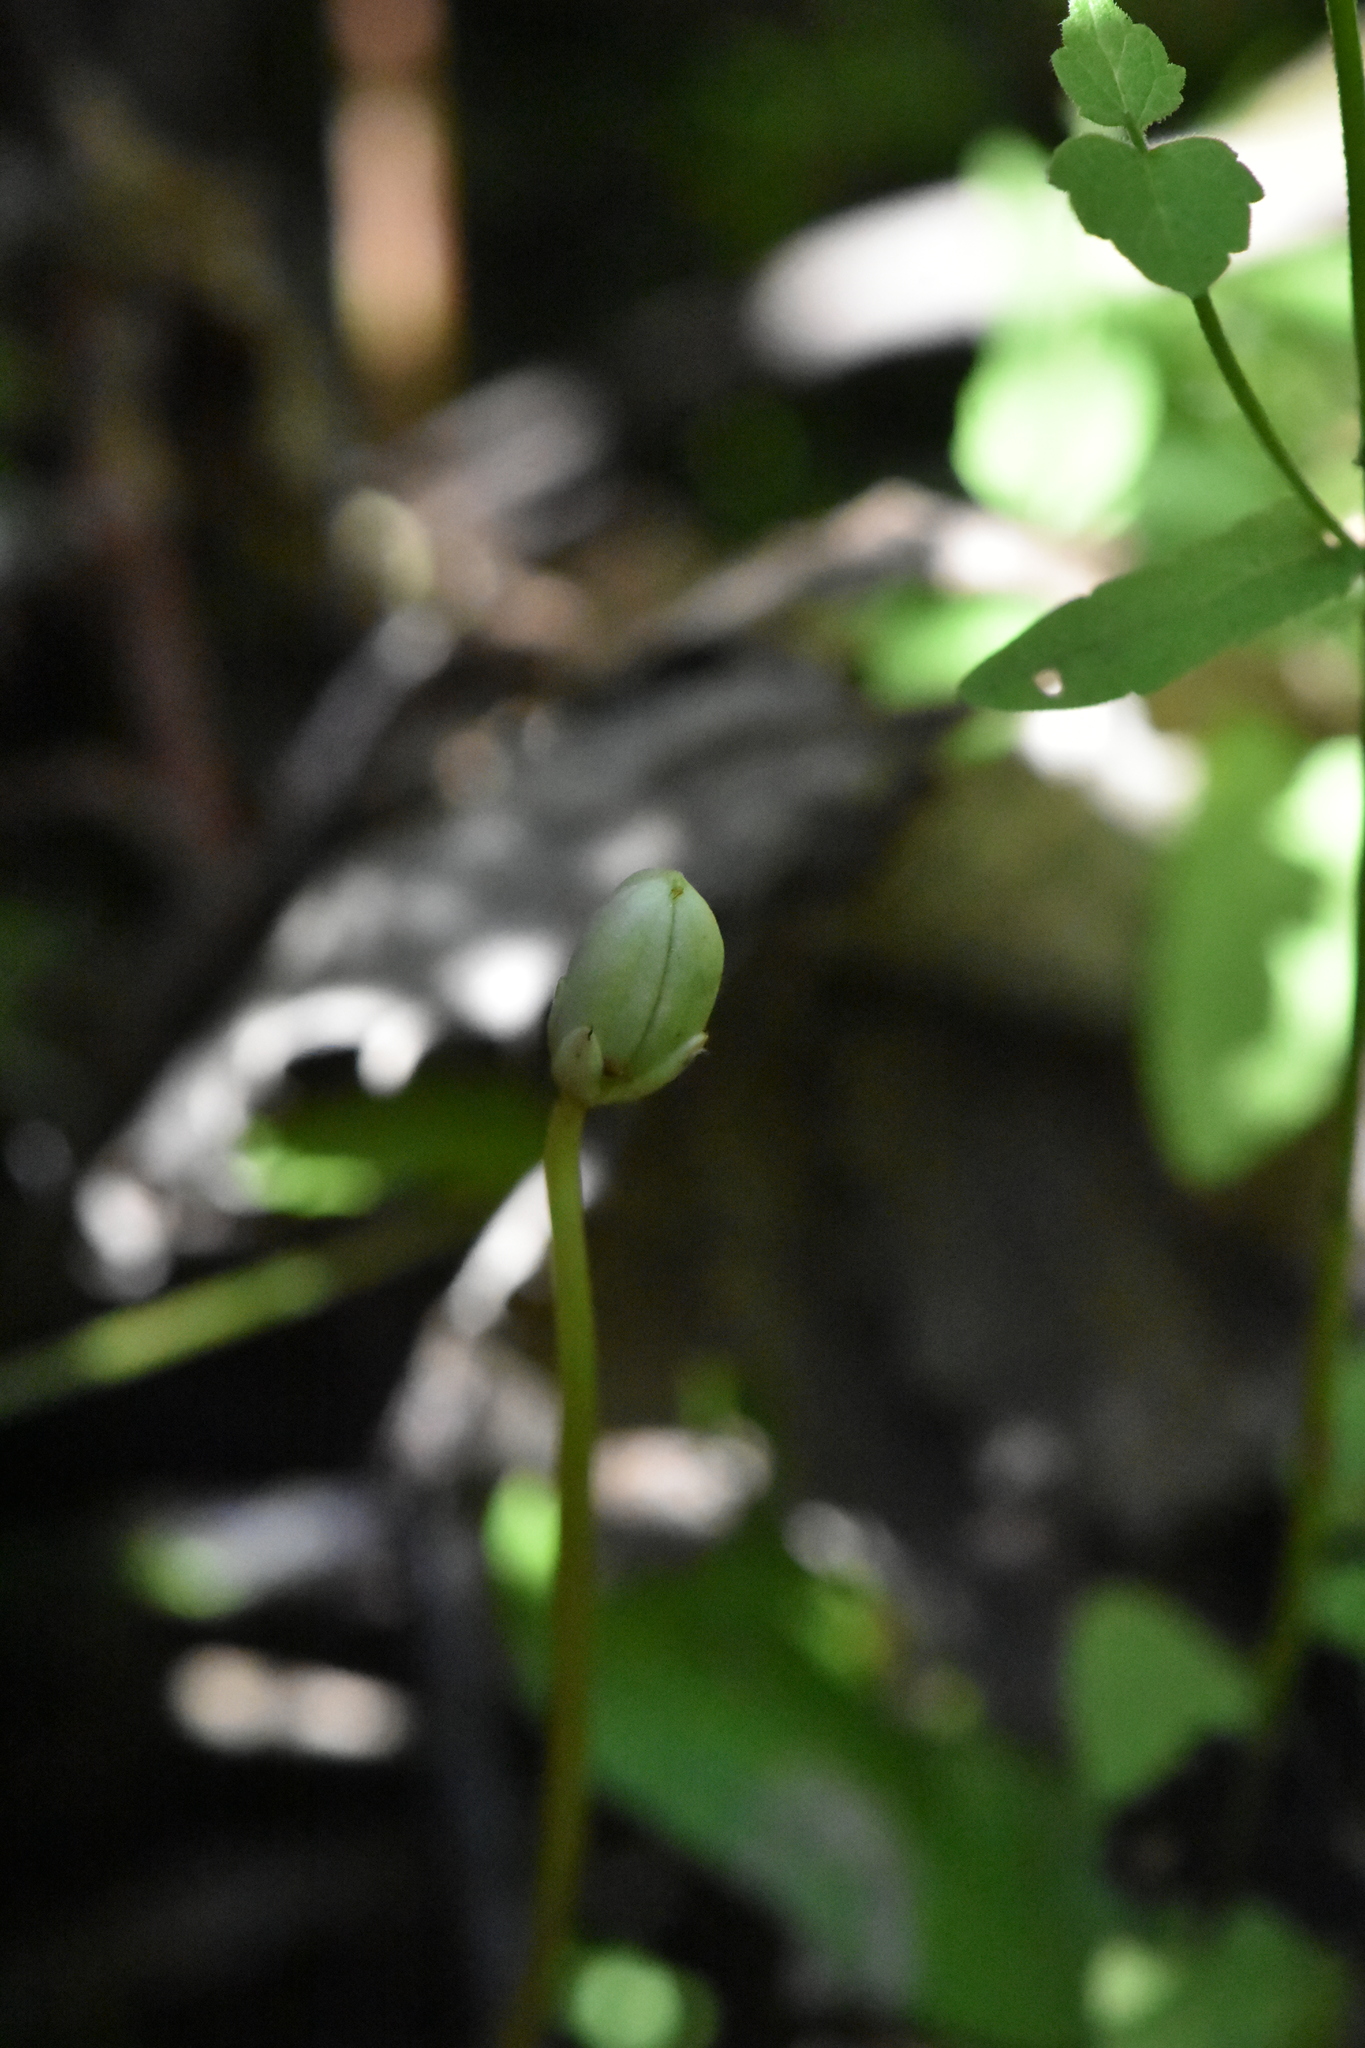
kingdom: Plantae
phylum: Tracheophyta
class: Magnoliopsida
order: Malpighiales
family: Violaceae
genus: Viola
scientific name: Viola palustris
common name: Marsh violet
